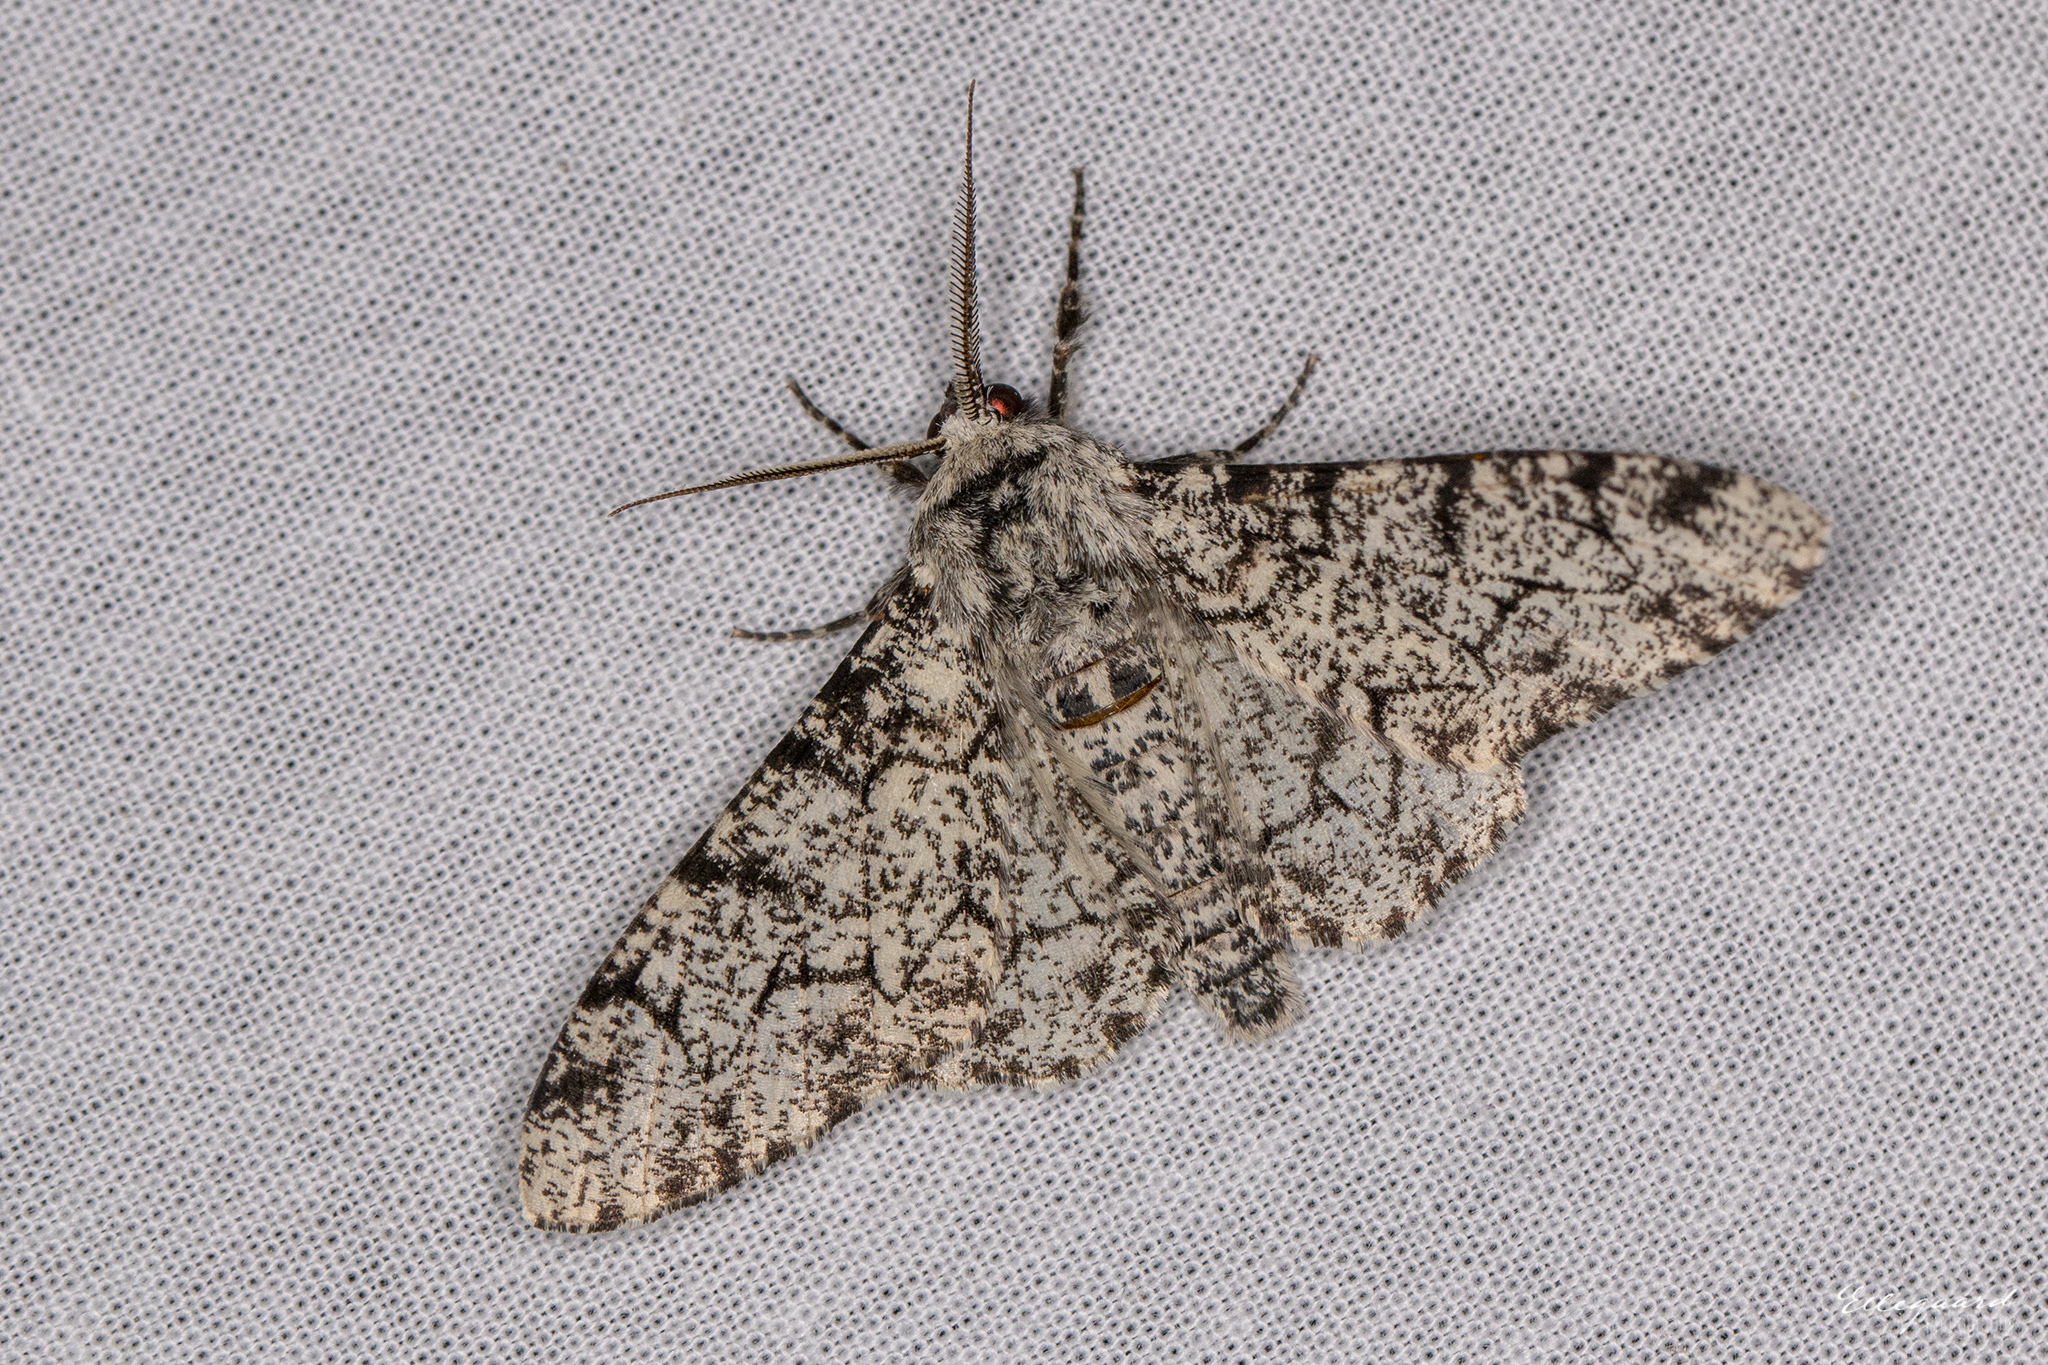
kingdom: Animalia
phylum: Arthropoda
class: Insecta
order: Lepidoptera
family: Geometridae
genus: Biston
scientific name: Biston betularia
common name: Peppered moth
